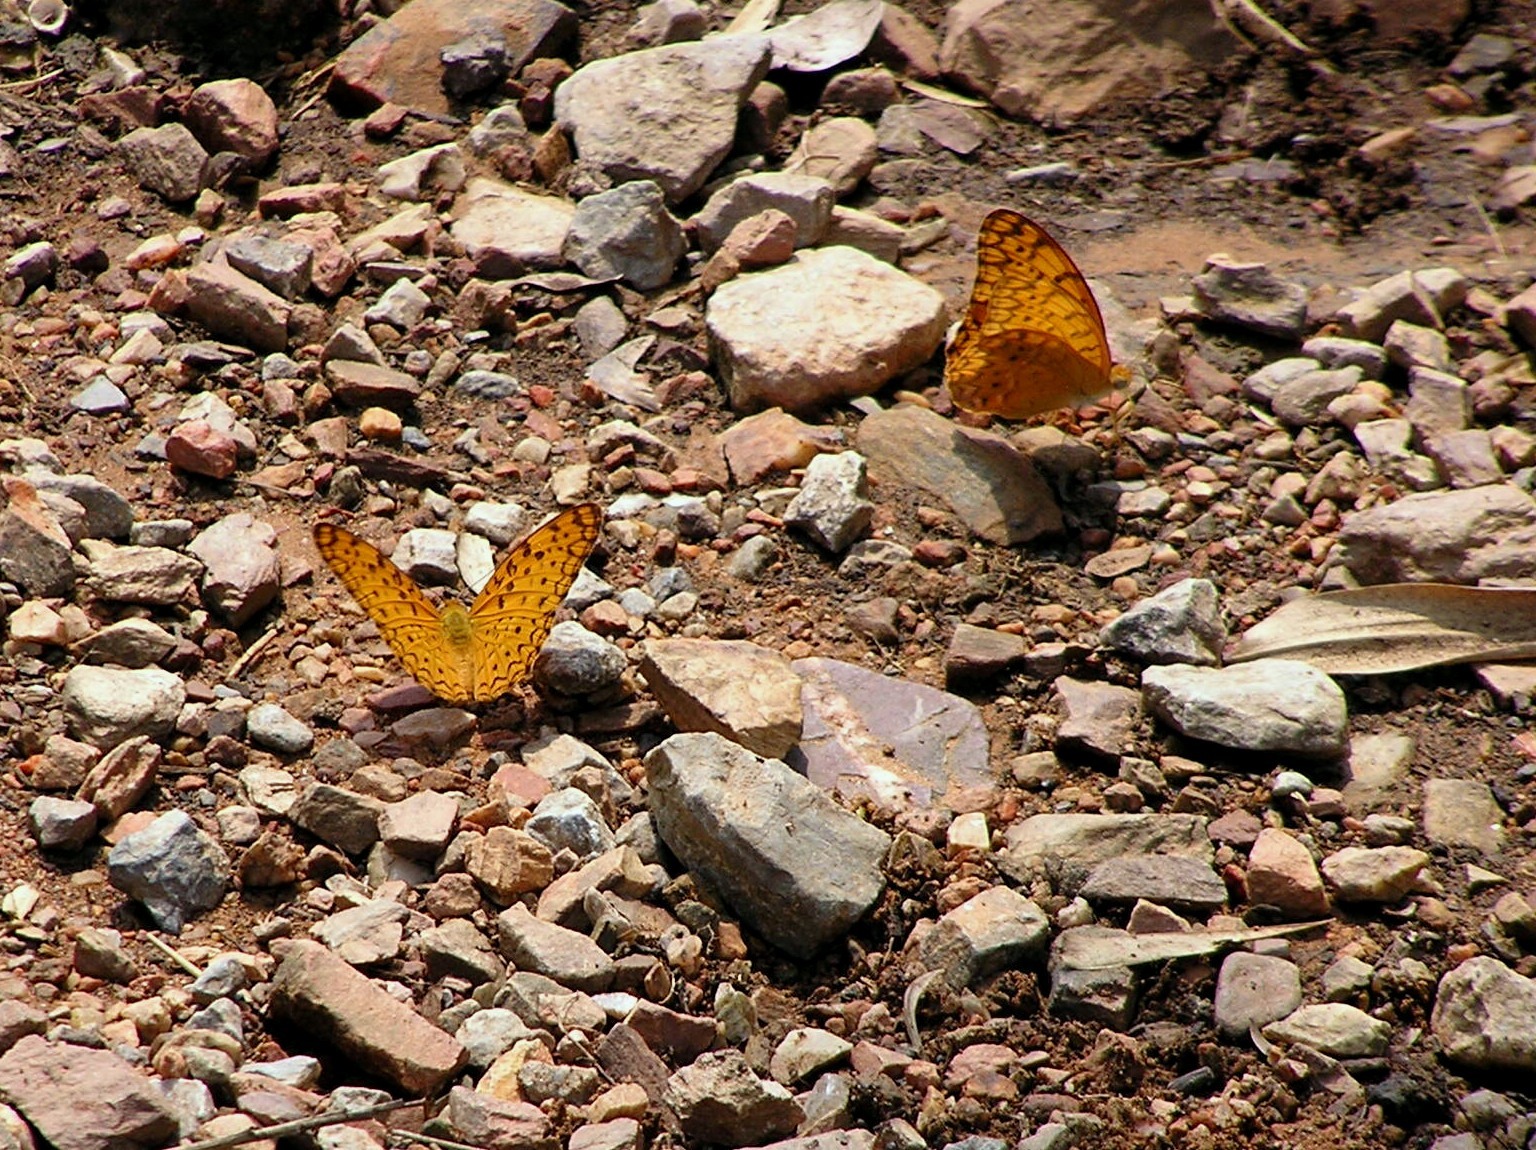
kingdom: Animalia
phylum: Arthropoda
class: Insecta
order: Lepidoptera
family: Nymphalidae
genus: Phalanta
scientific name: Phalanta phalantha
